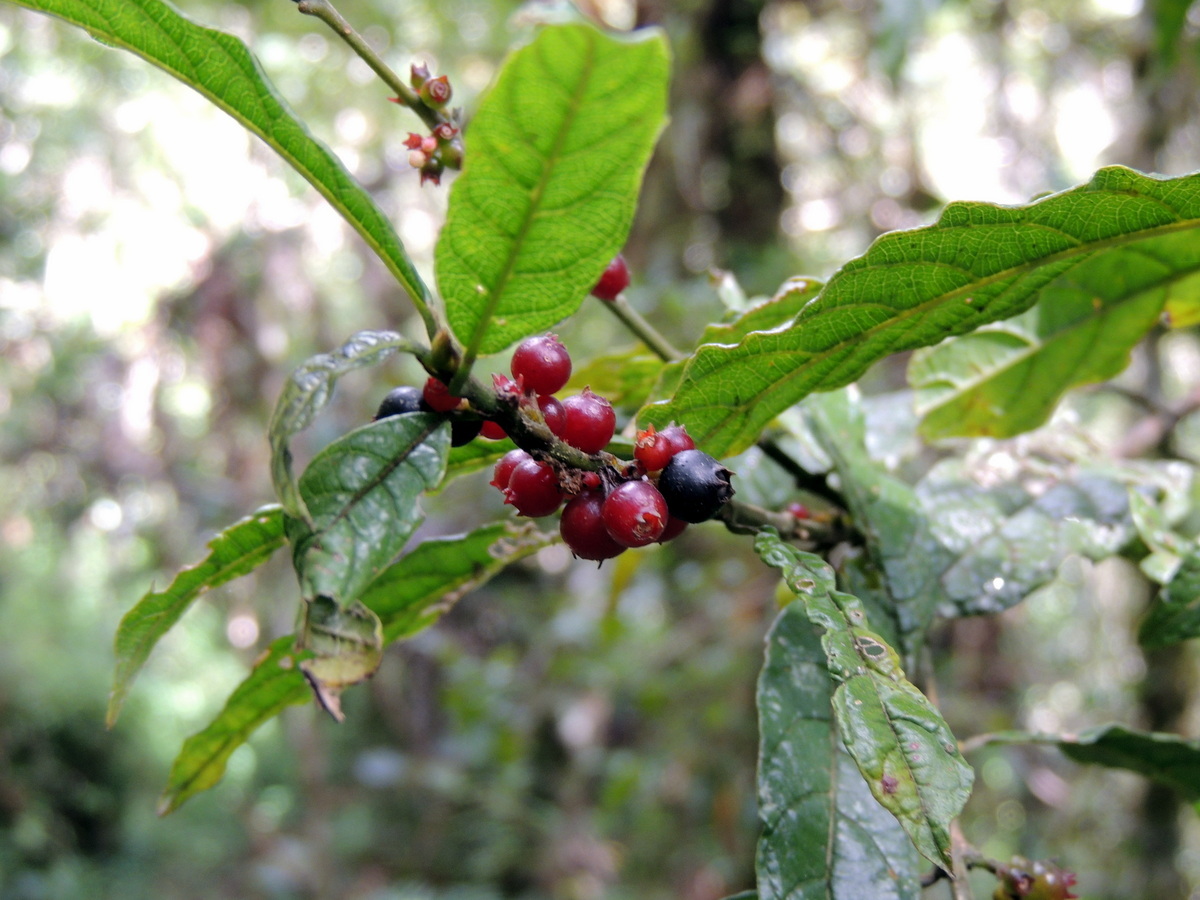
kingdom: Plantae
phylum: Tracheophyta
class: Magnoliopsida
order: Gentianales
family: Rubiaceae
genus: Pauridiantha
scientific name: Pauridiantha paucinervis
